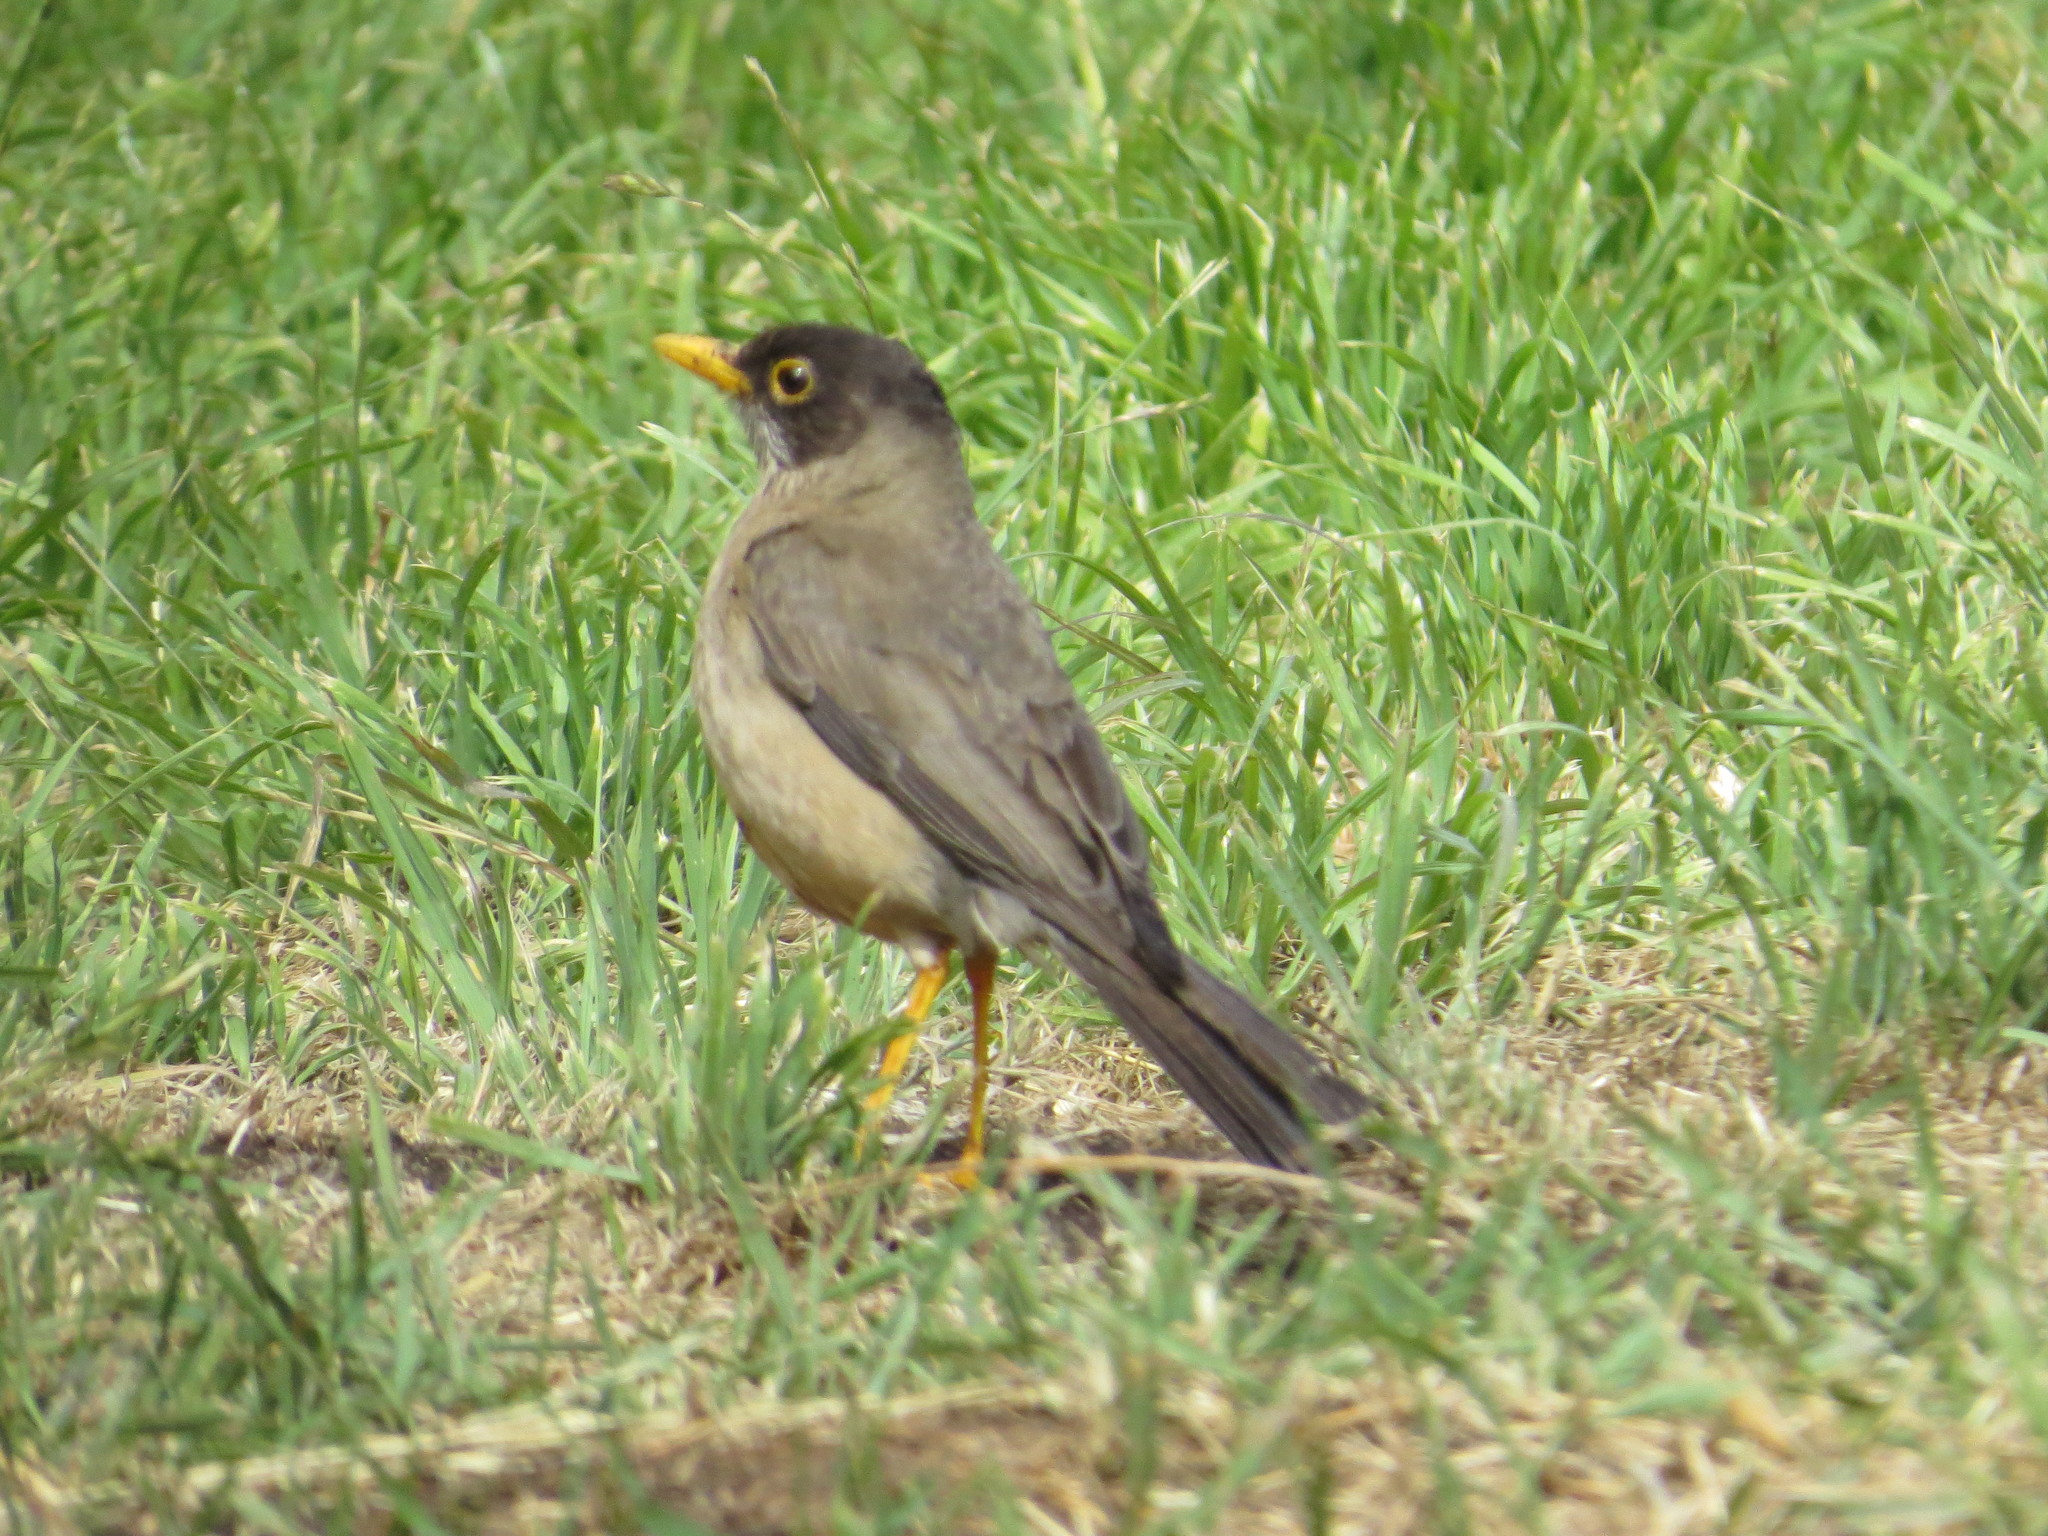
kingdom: Animalia
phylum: Chordata
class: Aves
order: Passeriformes
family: Turdidae
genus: Turdus
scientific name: Turdus falcklandii
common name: Austral thrush
